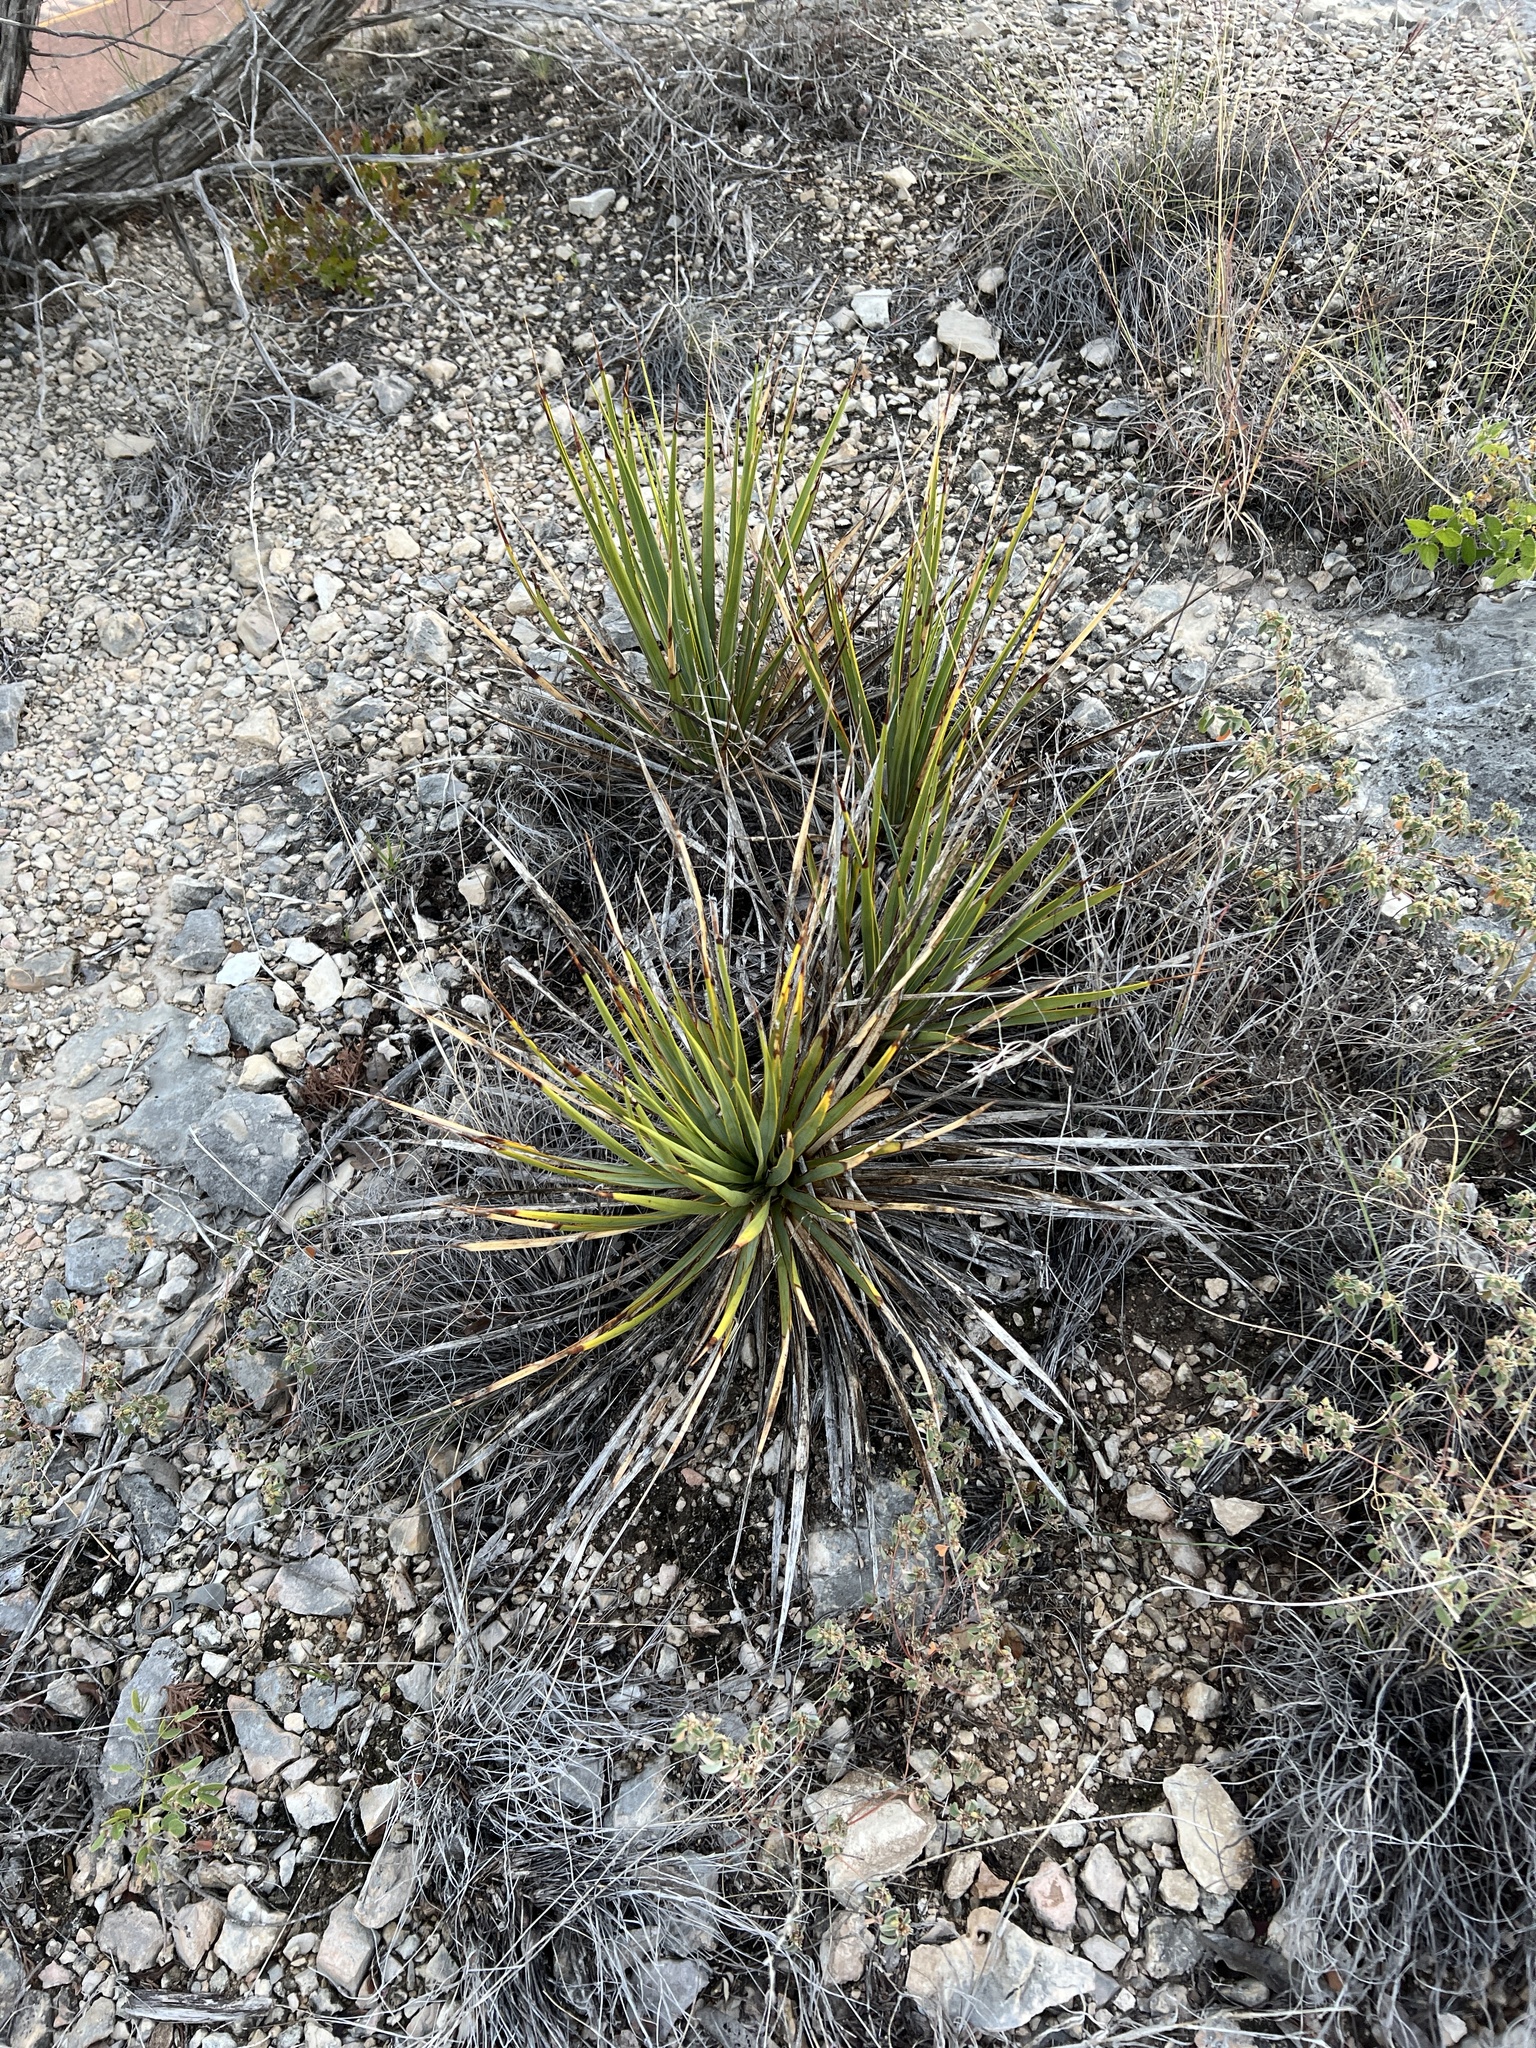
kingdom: Plantae
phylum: Tracheophyta
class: Liliopsida
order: Asparagales
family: Asparagaceae
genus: Yucca
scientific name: Yucca reverchonii
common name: San angelo yucca
